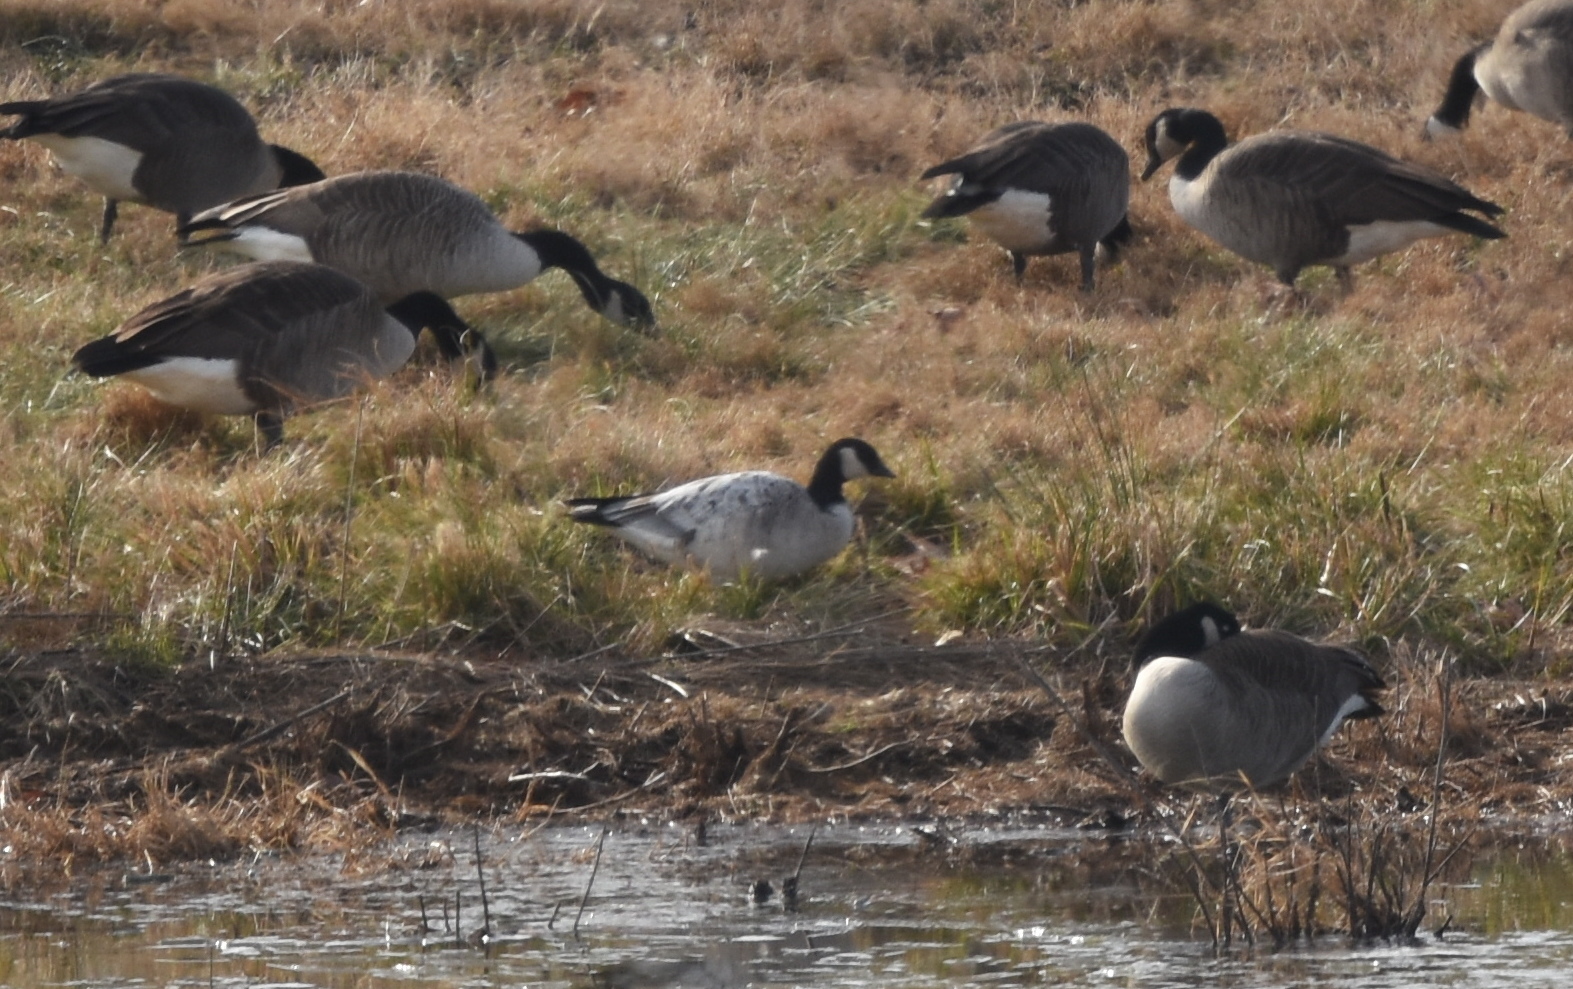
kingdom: Animalia
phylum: Chordata
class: Aves
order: Anseriformes
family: Anatidae
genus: Branta
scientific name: Branta hutchinsii
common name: Cackling goose
